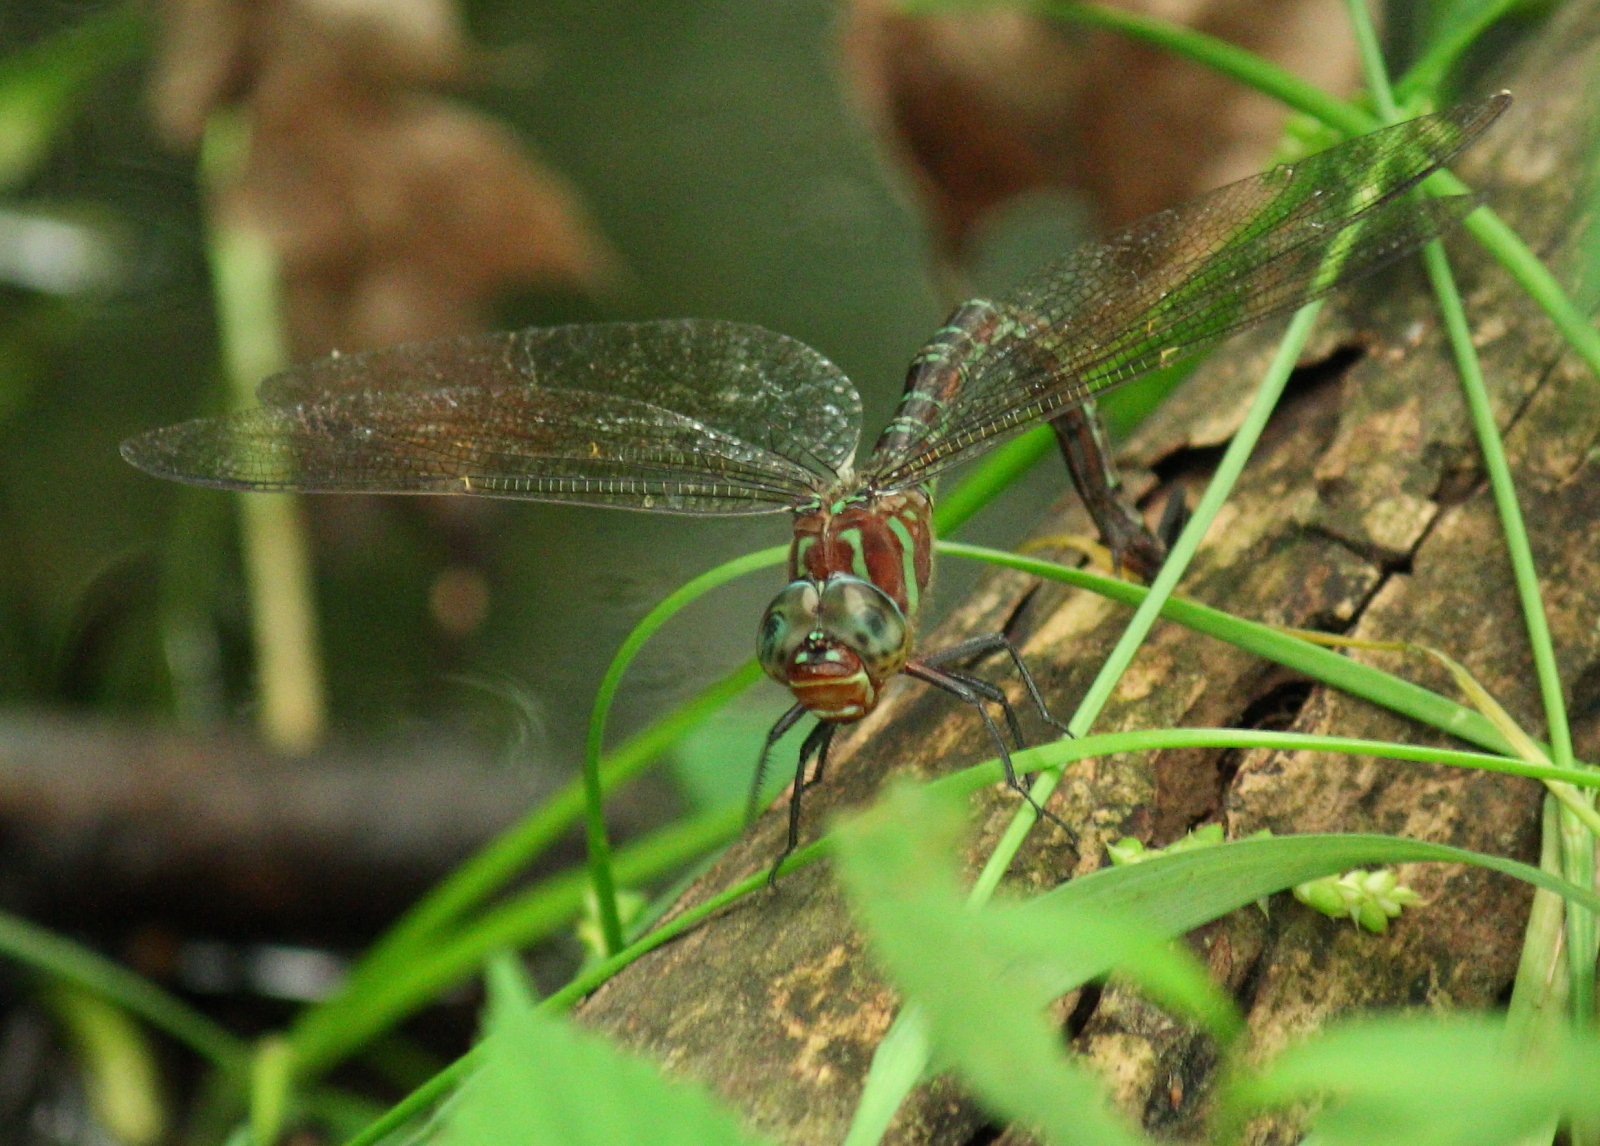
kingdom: Animalia
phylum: Arthropoda
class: Insecta
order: Odonata
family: Aeshnidae
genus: Epiaeschna
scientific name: Epiaeschna heros
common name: Swamp darner
